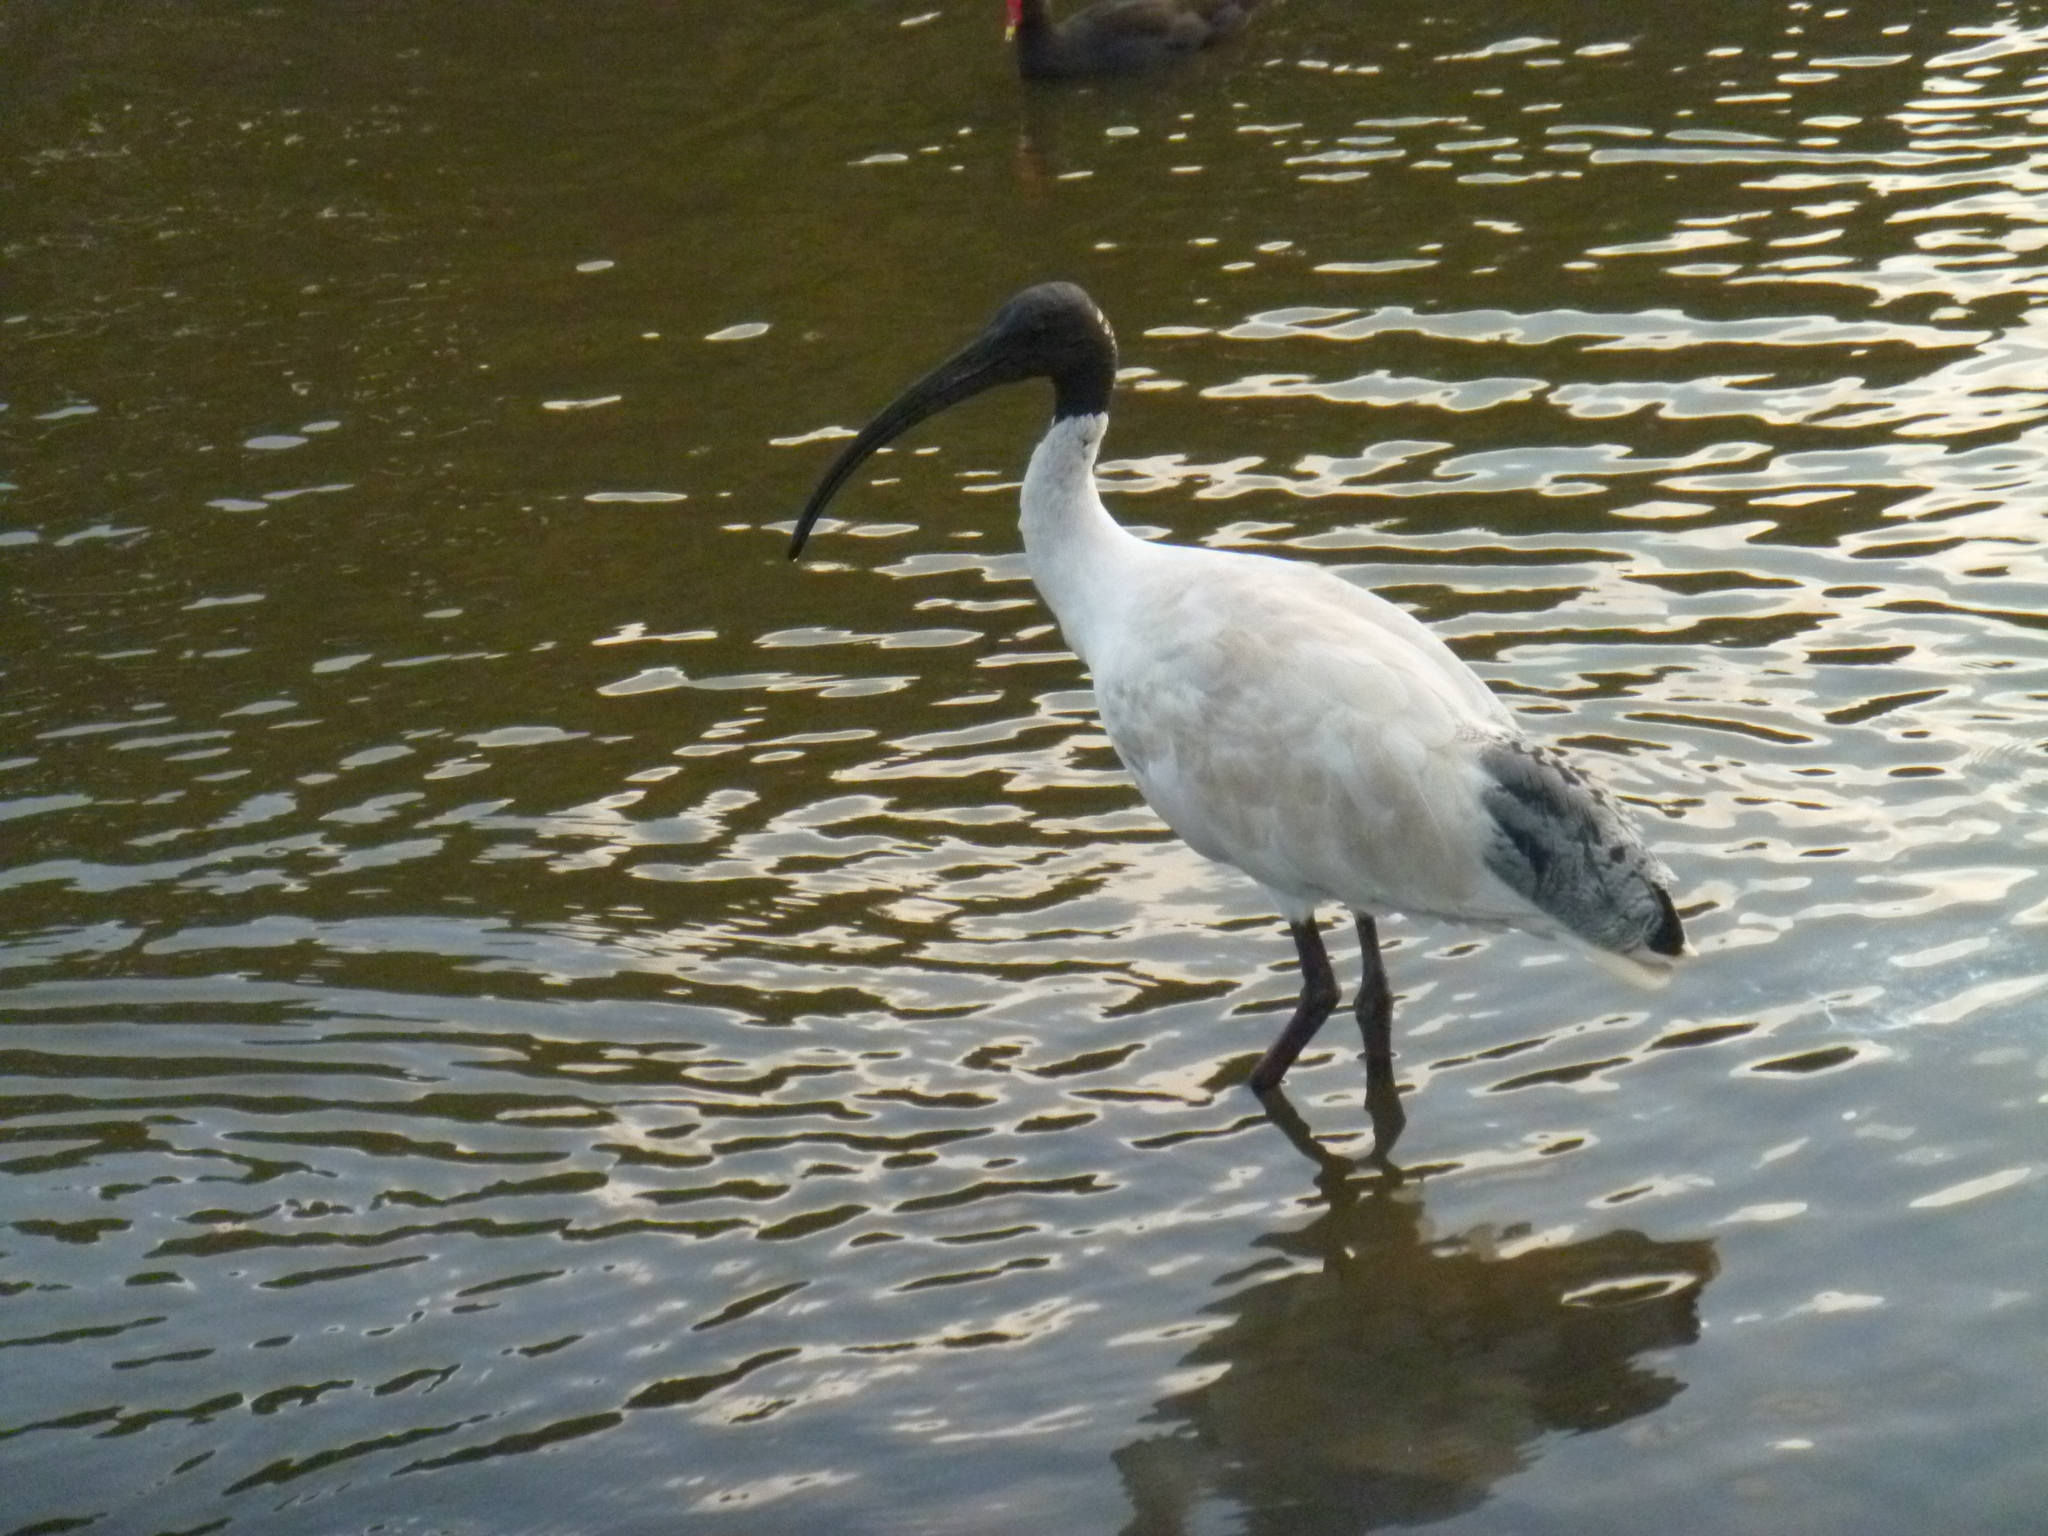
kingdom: Animalia
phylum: Chordata
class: Aves
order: Pelecaniformes
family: Threskiornithidae
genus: Threskiornis
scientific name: Threskiornis molucca
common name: Australian white ibis
